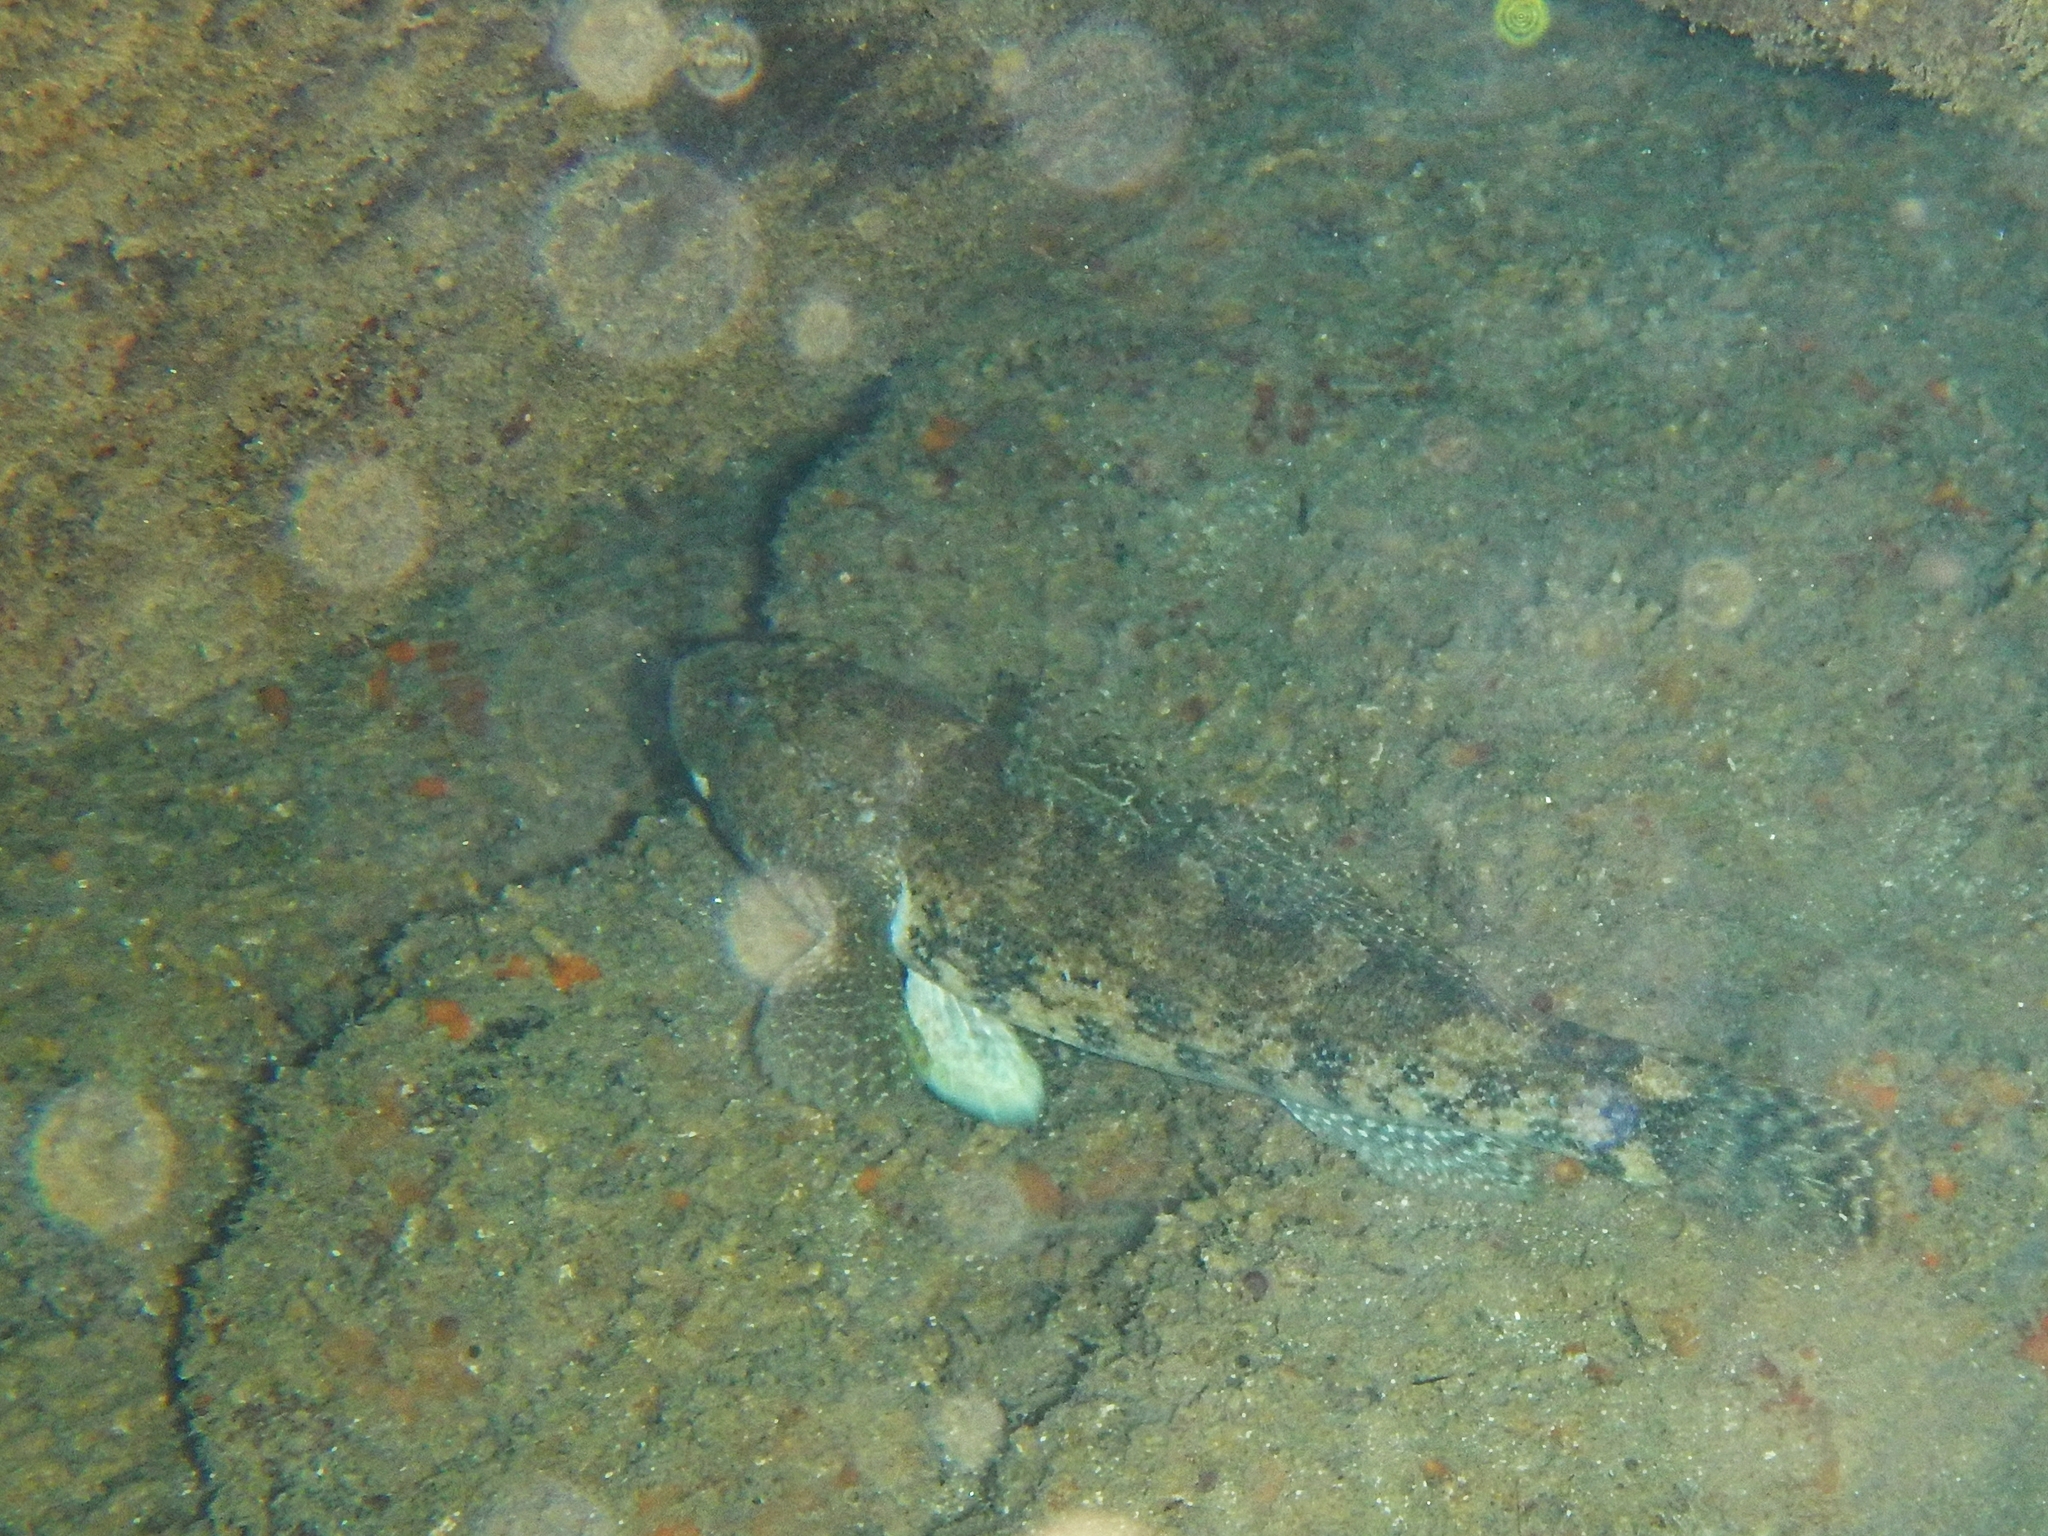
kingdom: Animalia
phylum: Chordata
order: Perciformes
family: Gobiidae
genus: Gobius
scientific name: Gobius cobitis
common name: Giant goby
